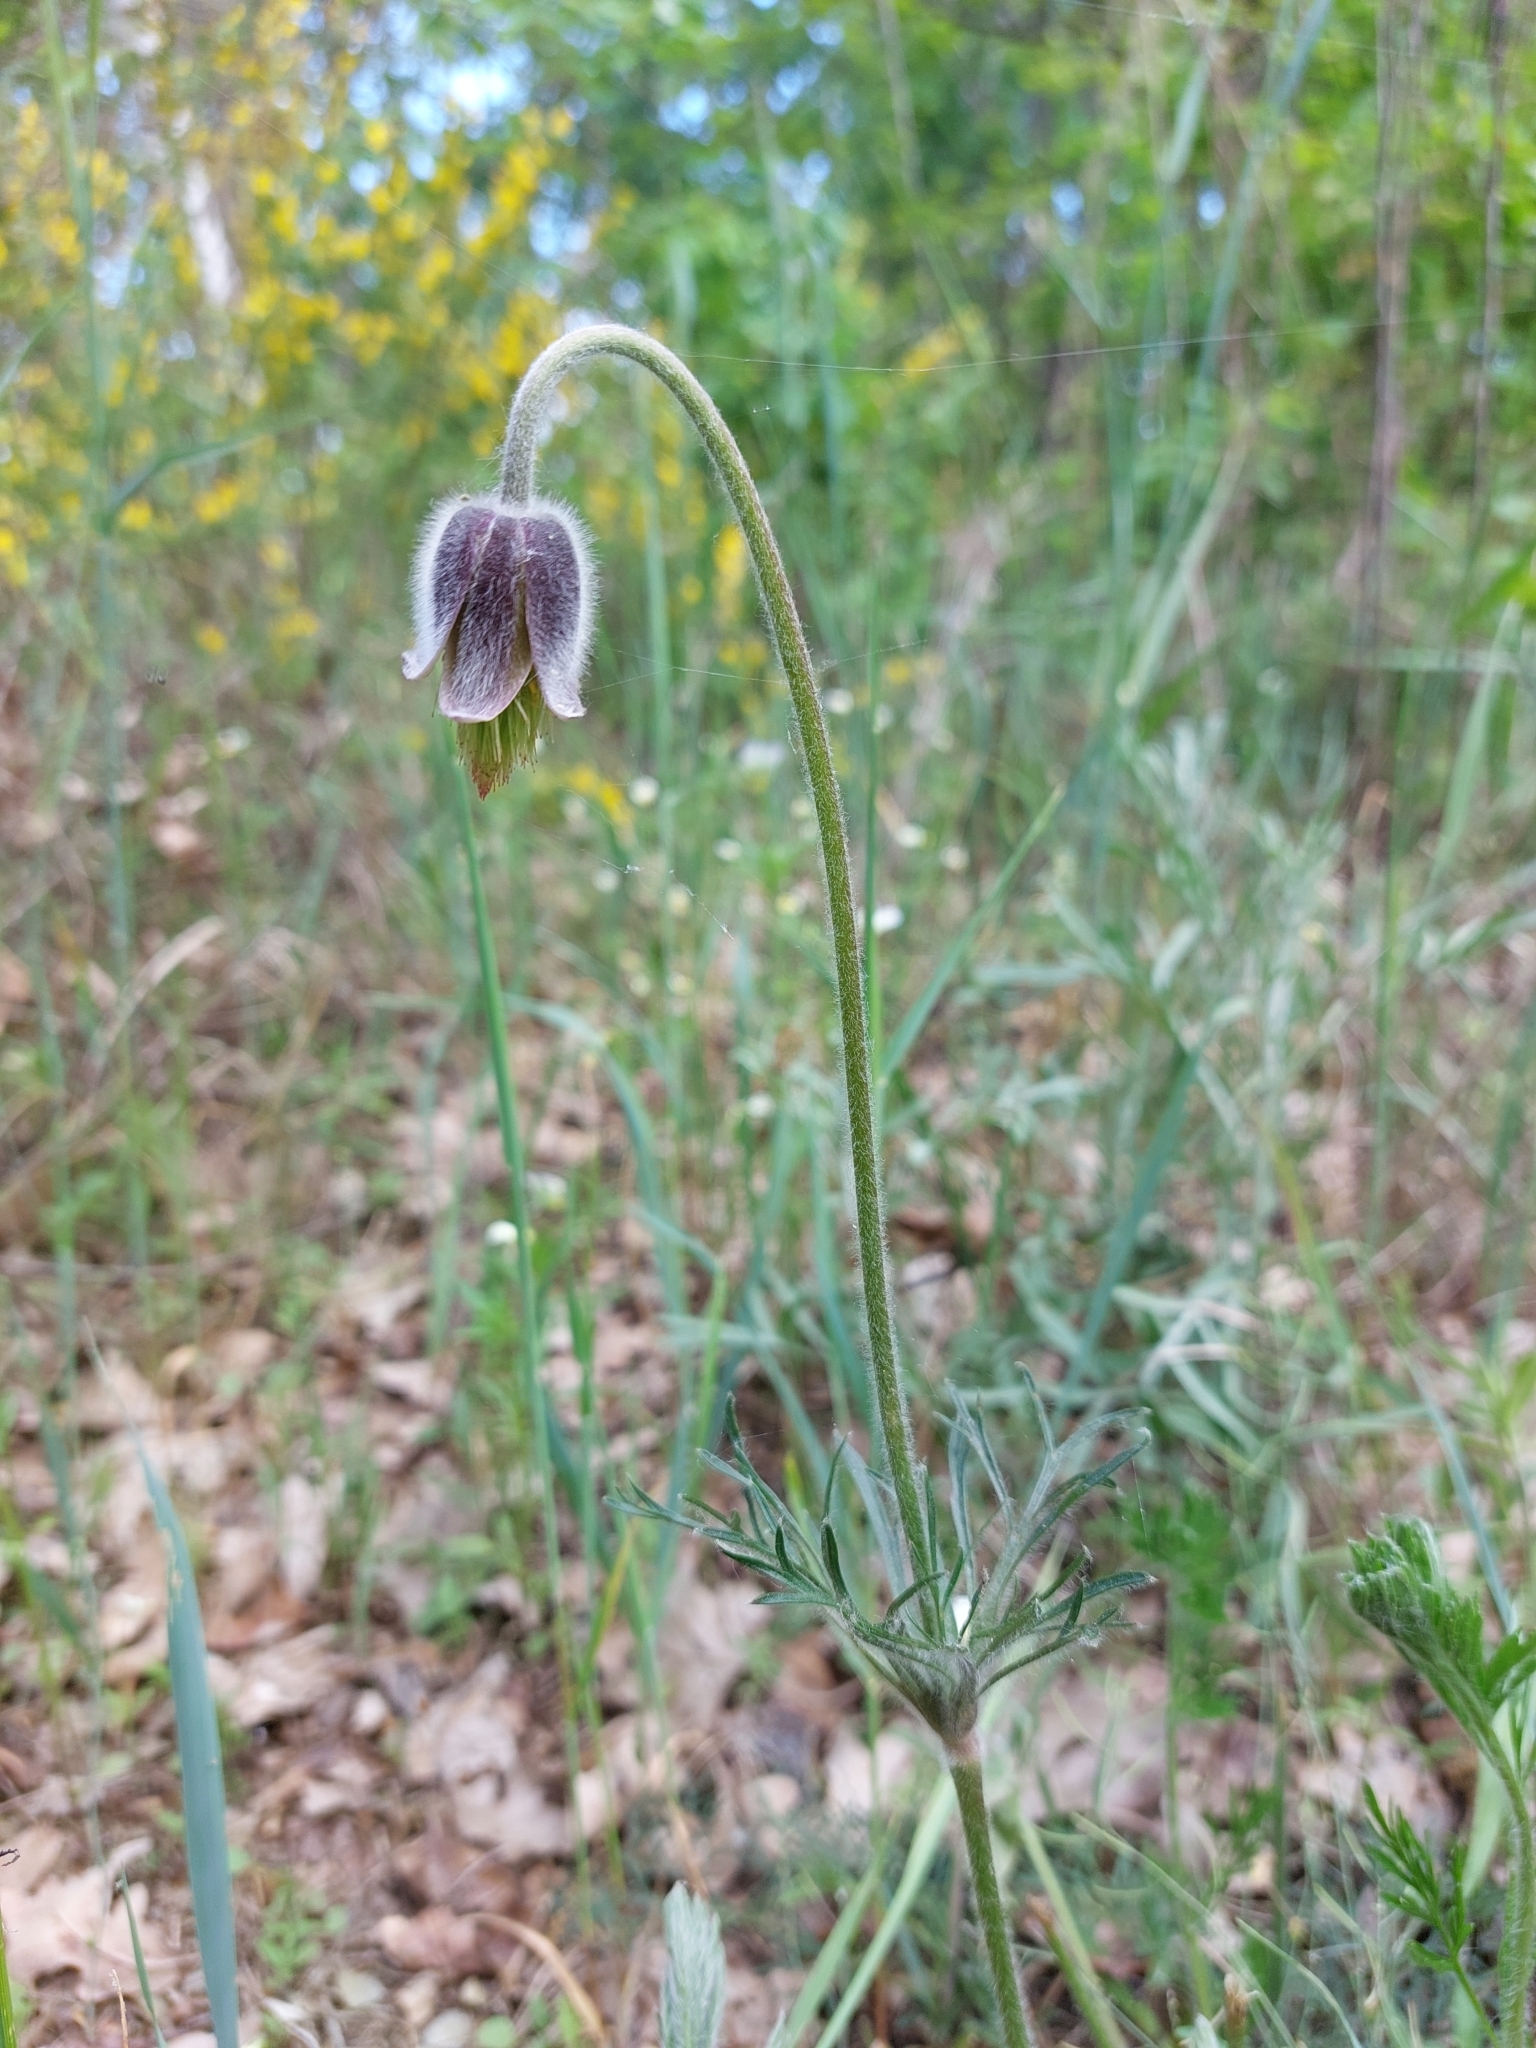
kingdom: Plantae
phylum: Tracheophyta
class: Magnoliopsida
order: Ranunculales
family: Ranunculaceae
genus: Pulsatilla
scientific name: Pulsatilla pratensis
